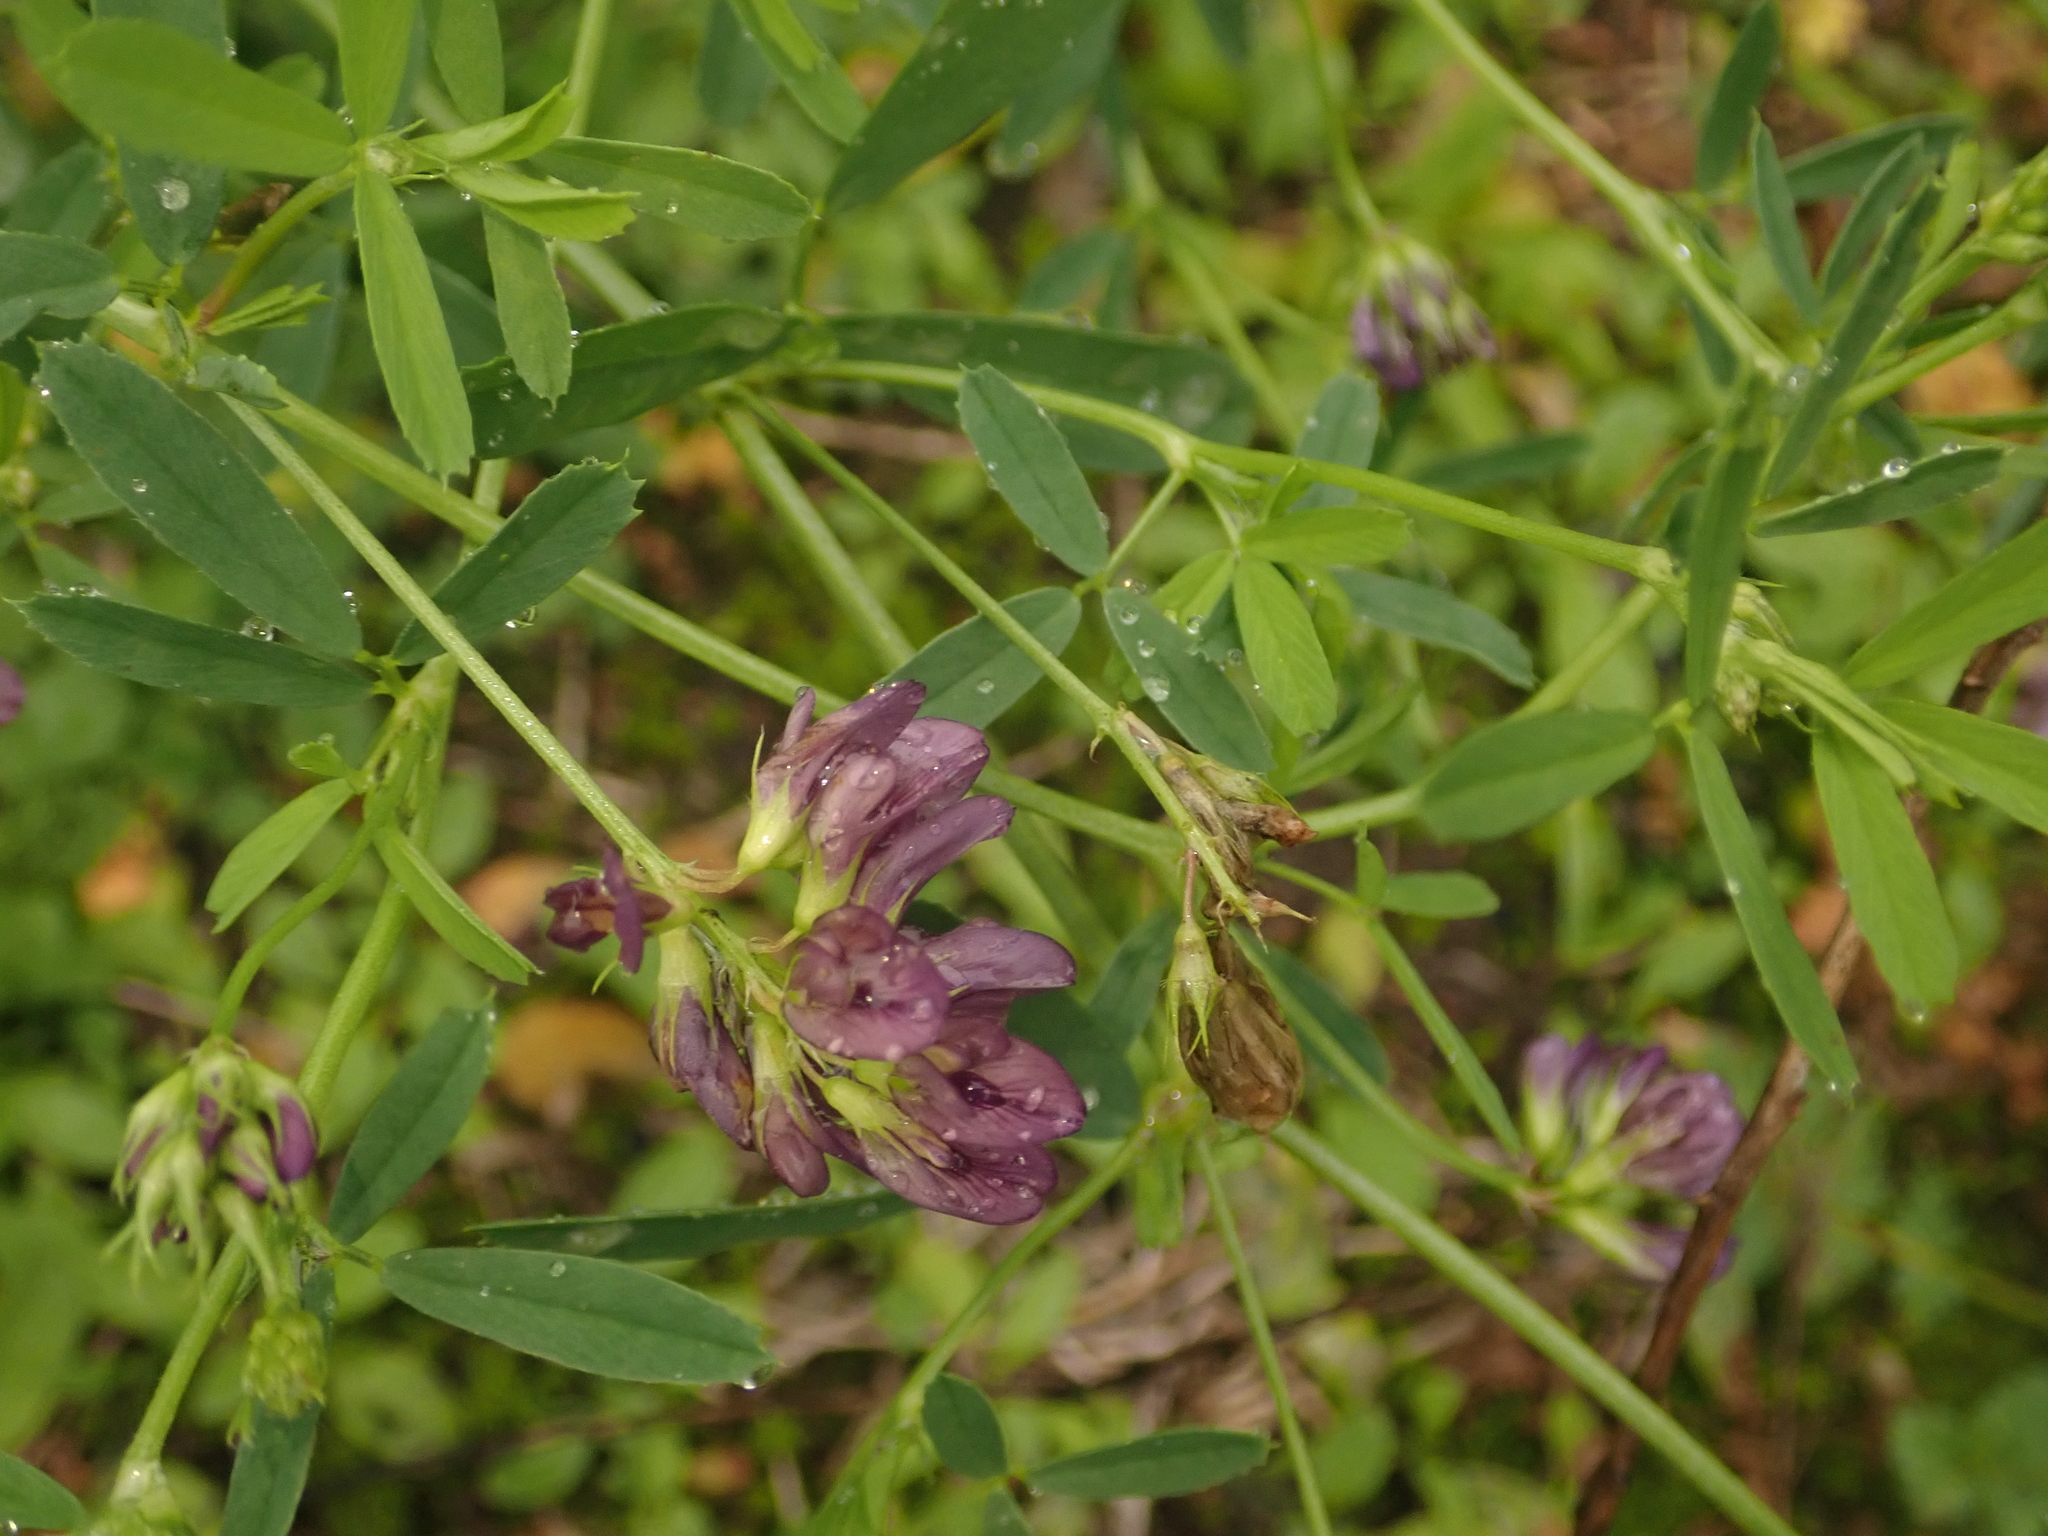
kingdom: Plantae
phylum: Tracheophyta
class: Magnoliopsida
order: Fabales
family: Fabaceae
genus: Medicago
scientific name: Medicago sativa
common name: Alfalfa
